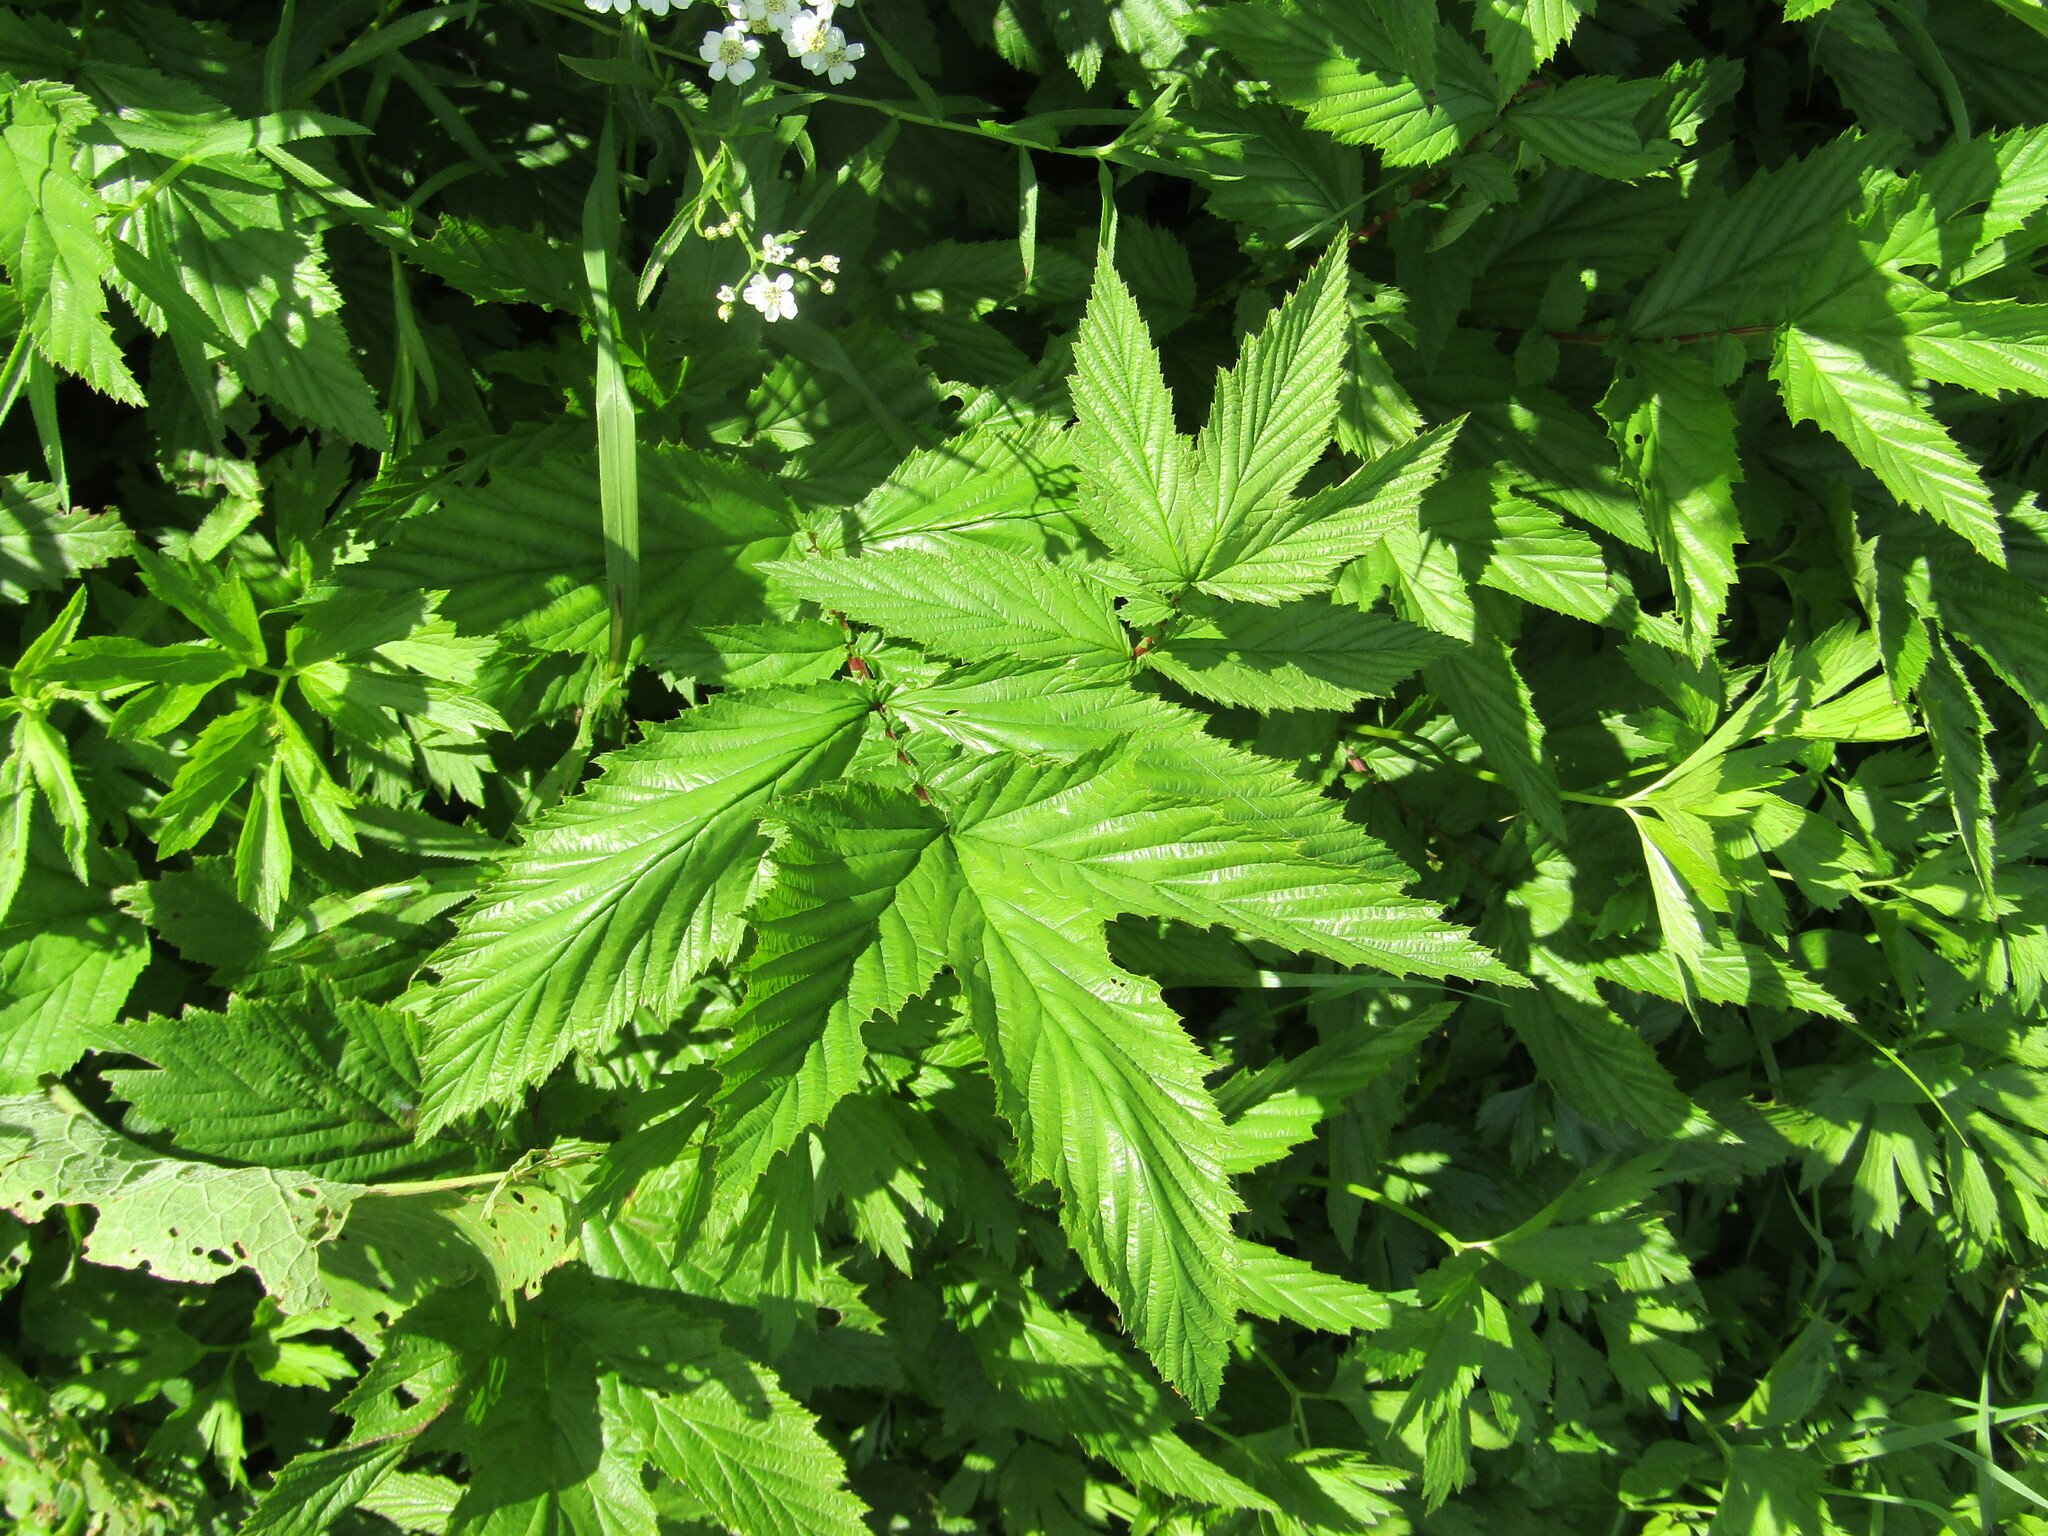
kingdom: Plantae
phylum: Tracheophyta
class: Magnoliopsida
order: Rosales
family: Rosaceae
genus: Filipendula
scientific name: Filipendula ulmaria
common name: Meadowsweet
